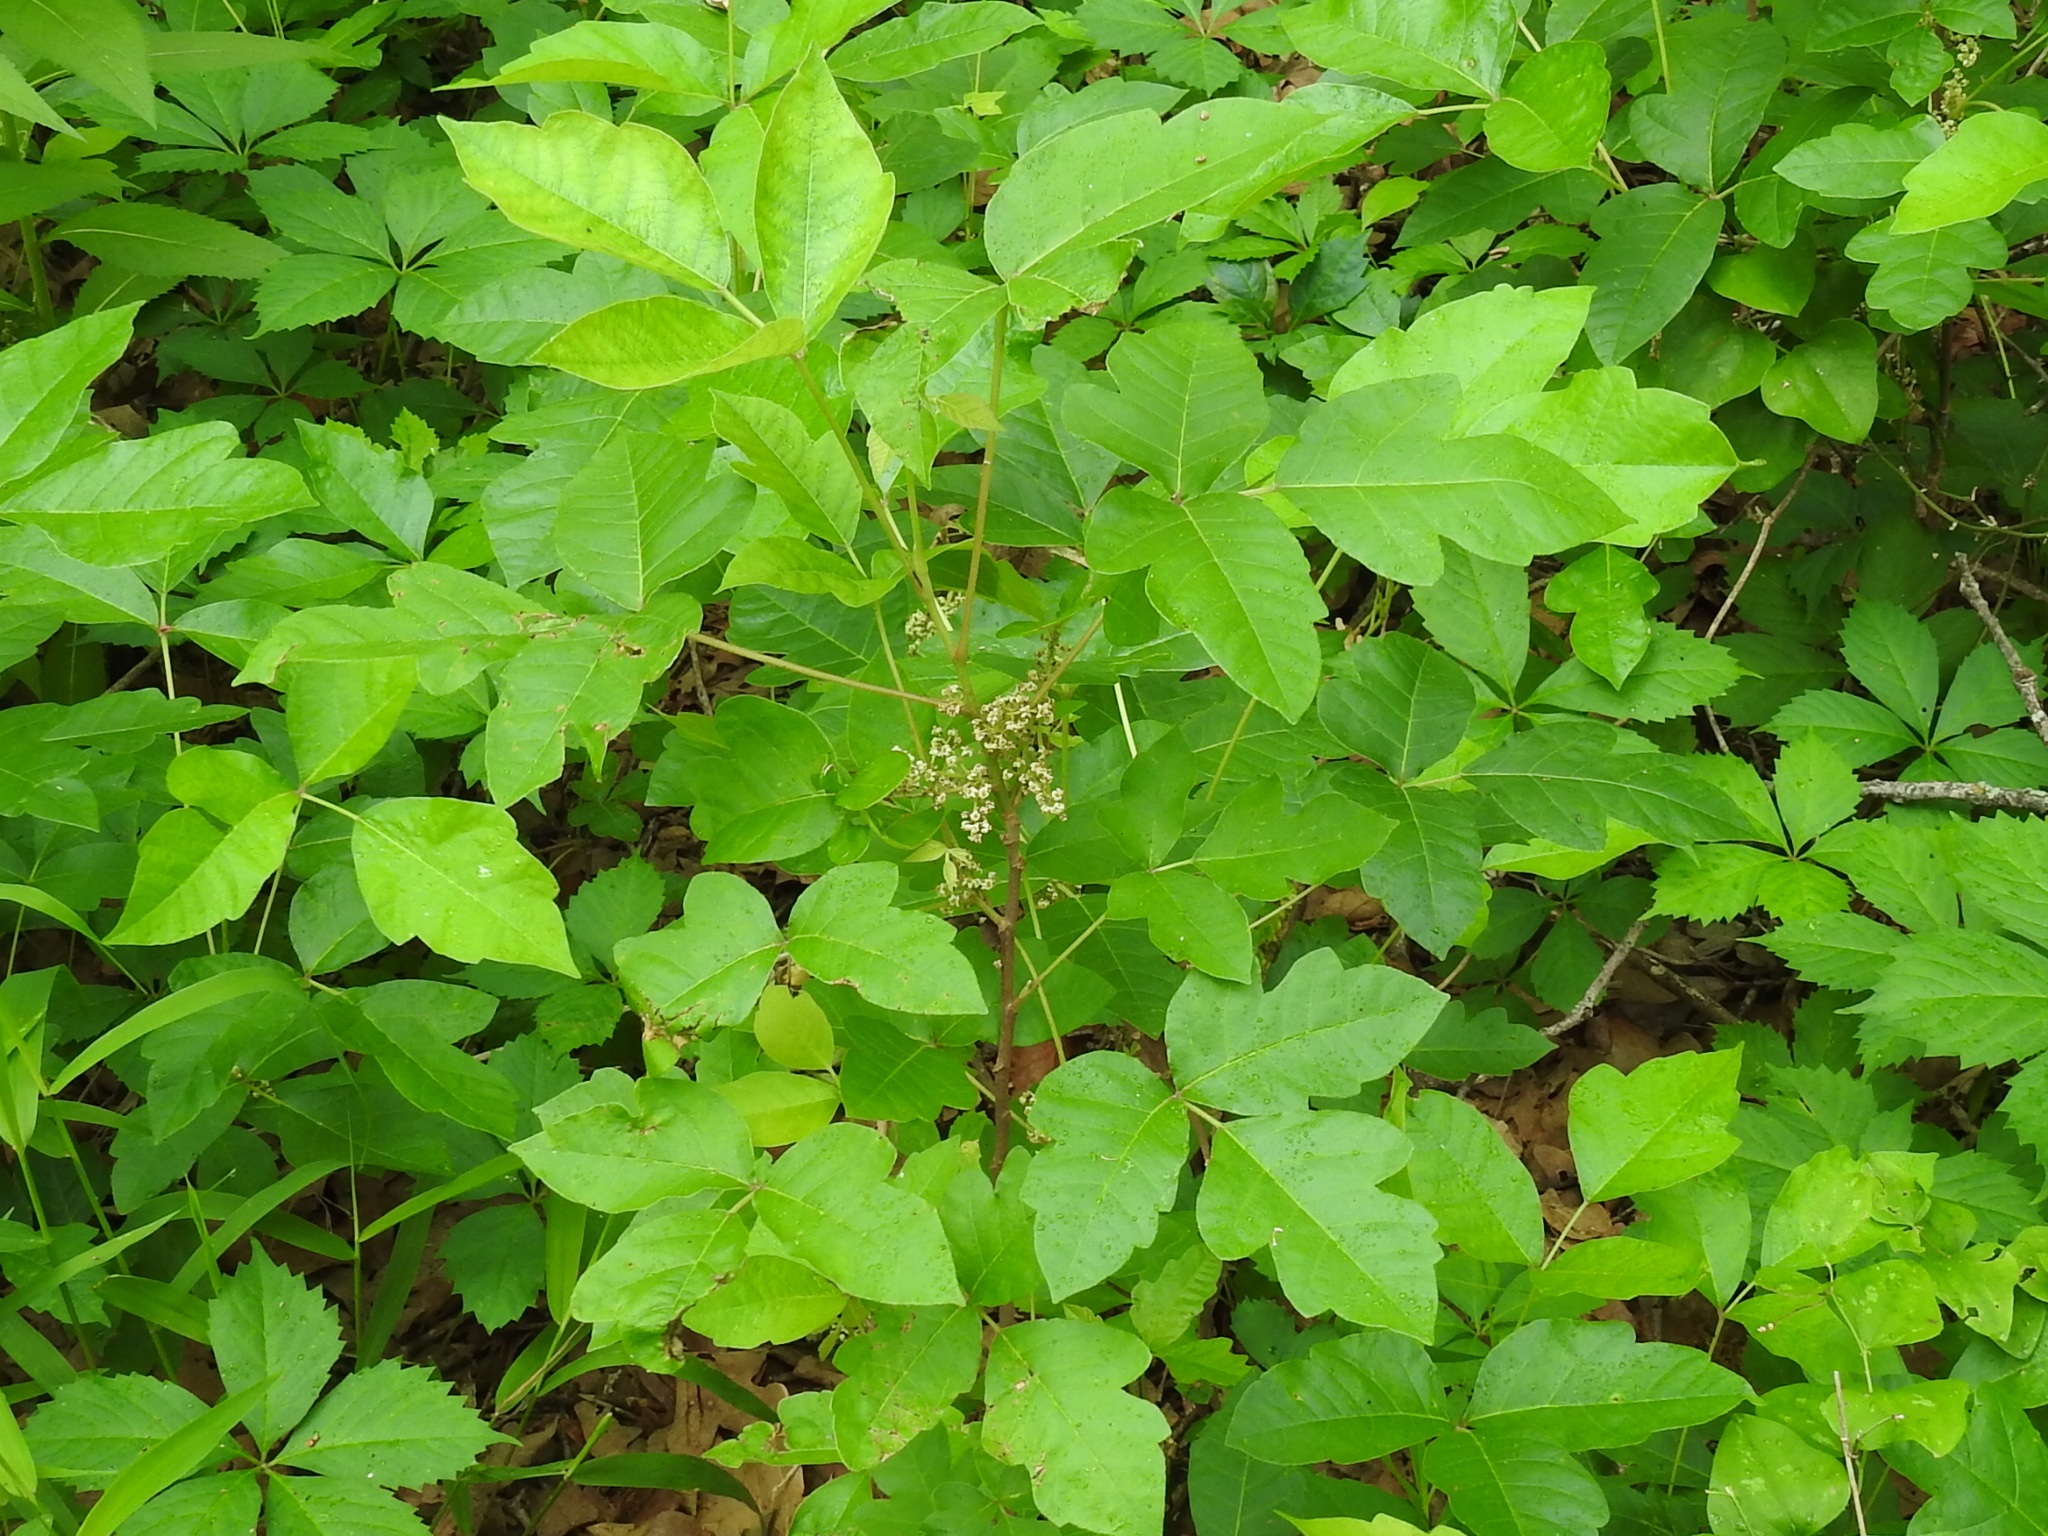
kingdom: Plantae
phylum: Tracheophyta
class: Magnoliopsida
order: Sapindales
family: Anacardiaceae
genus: Toxicodendron
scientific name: Toxicodendron radicans
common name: Poison ivy
